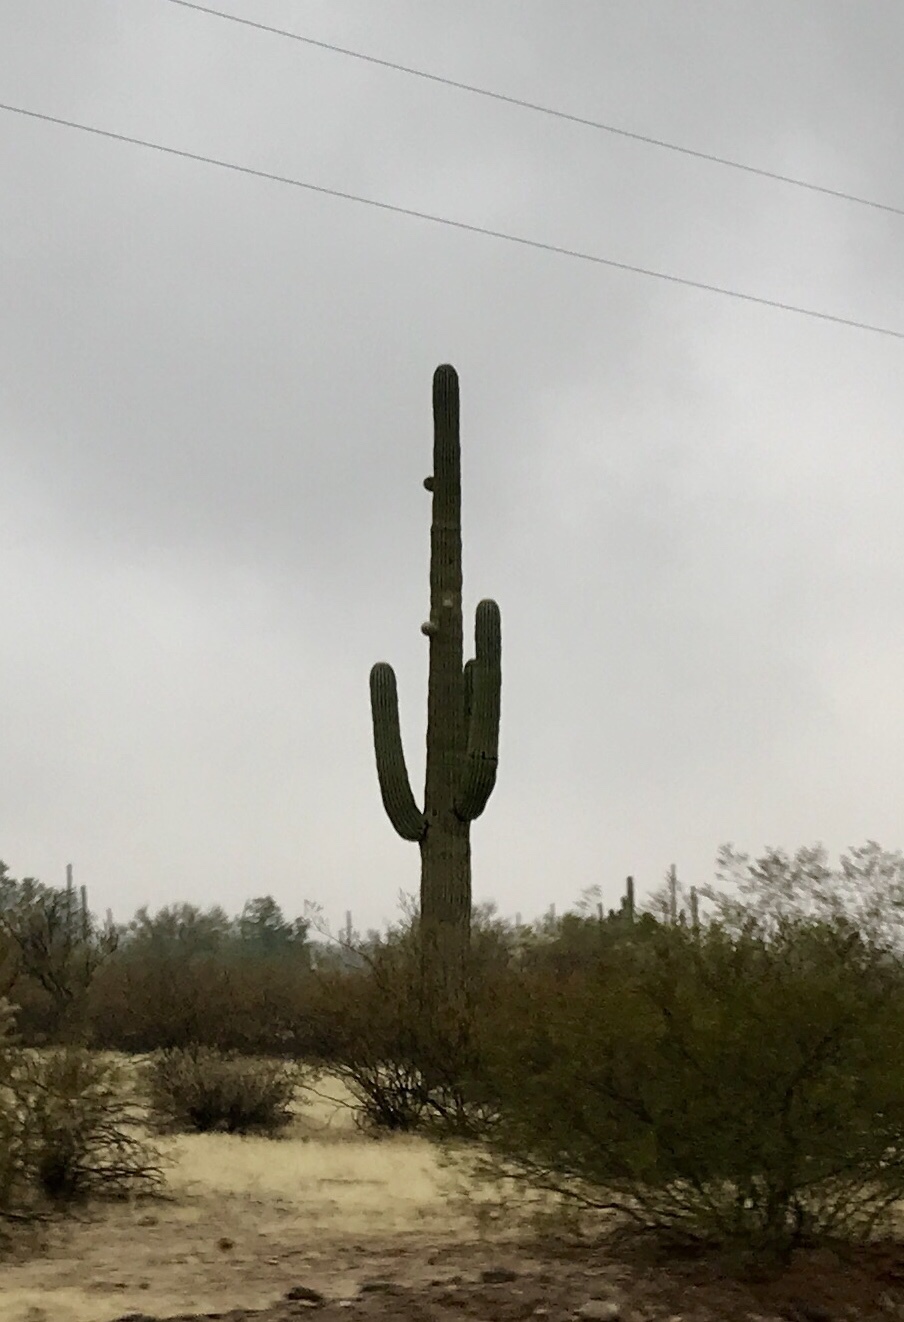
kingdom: Plantae
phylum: Tracheophyta
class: Magnoliopsida
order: Caryophyllales
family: Cactaceae
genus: Carnegiea
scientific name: Carnegiea gigantea
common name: Saguaro
